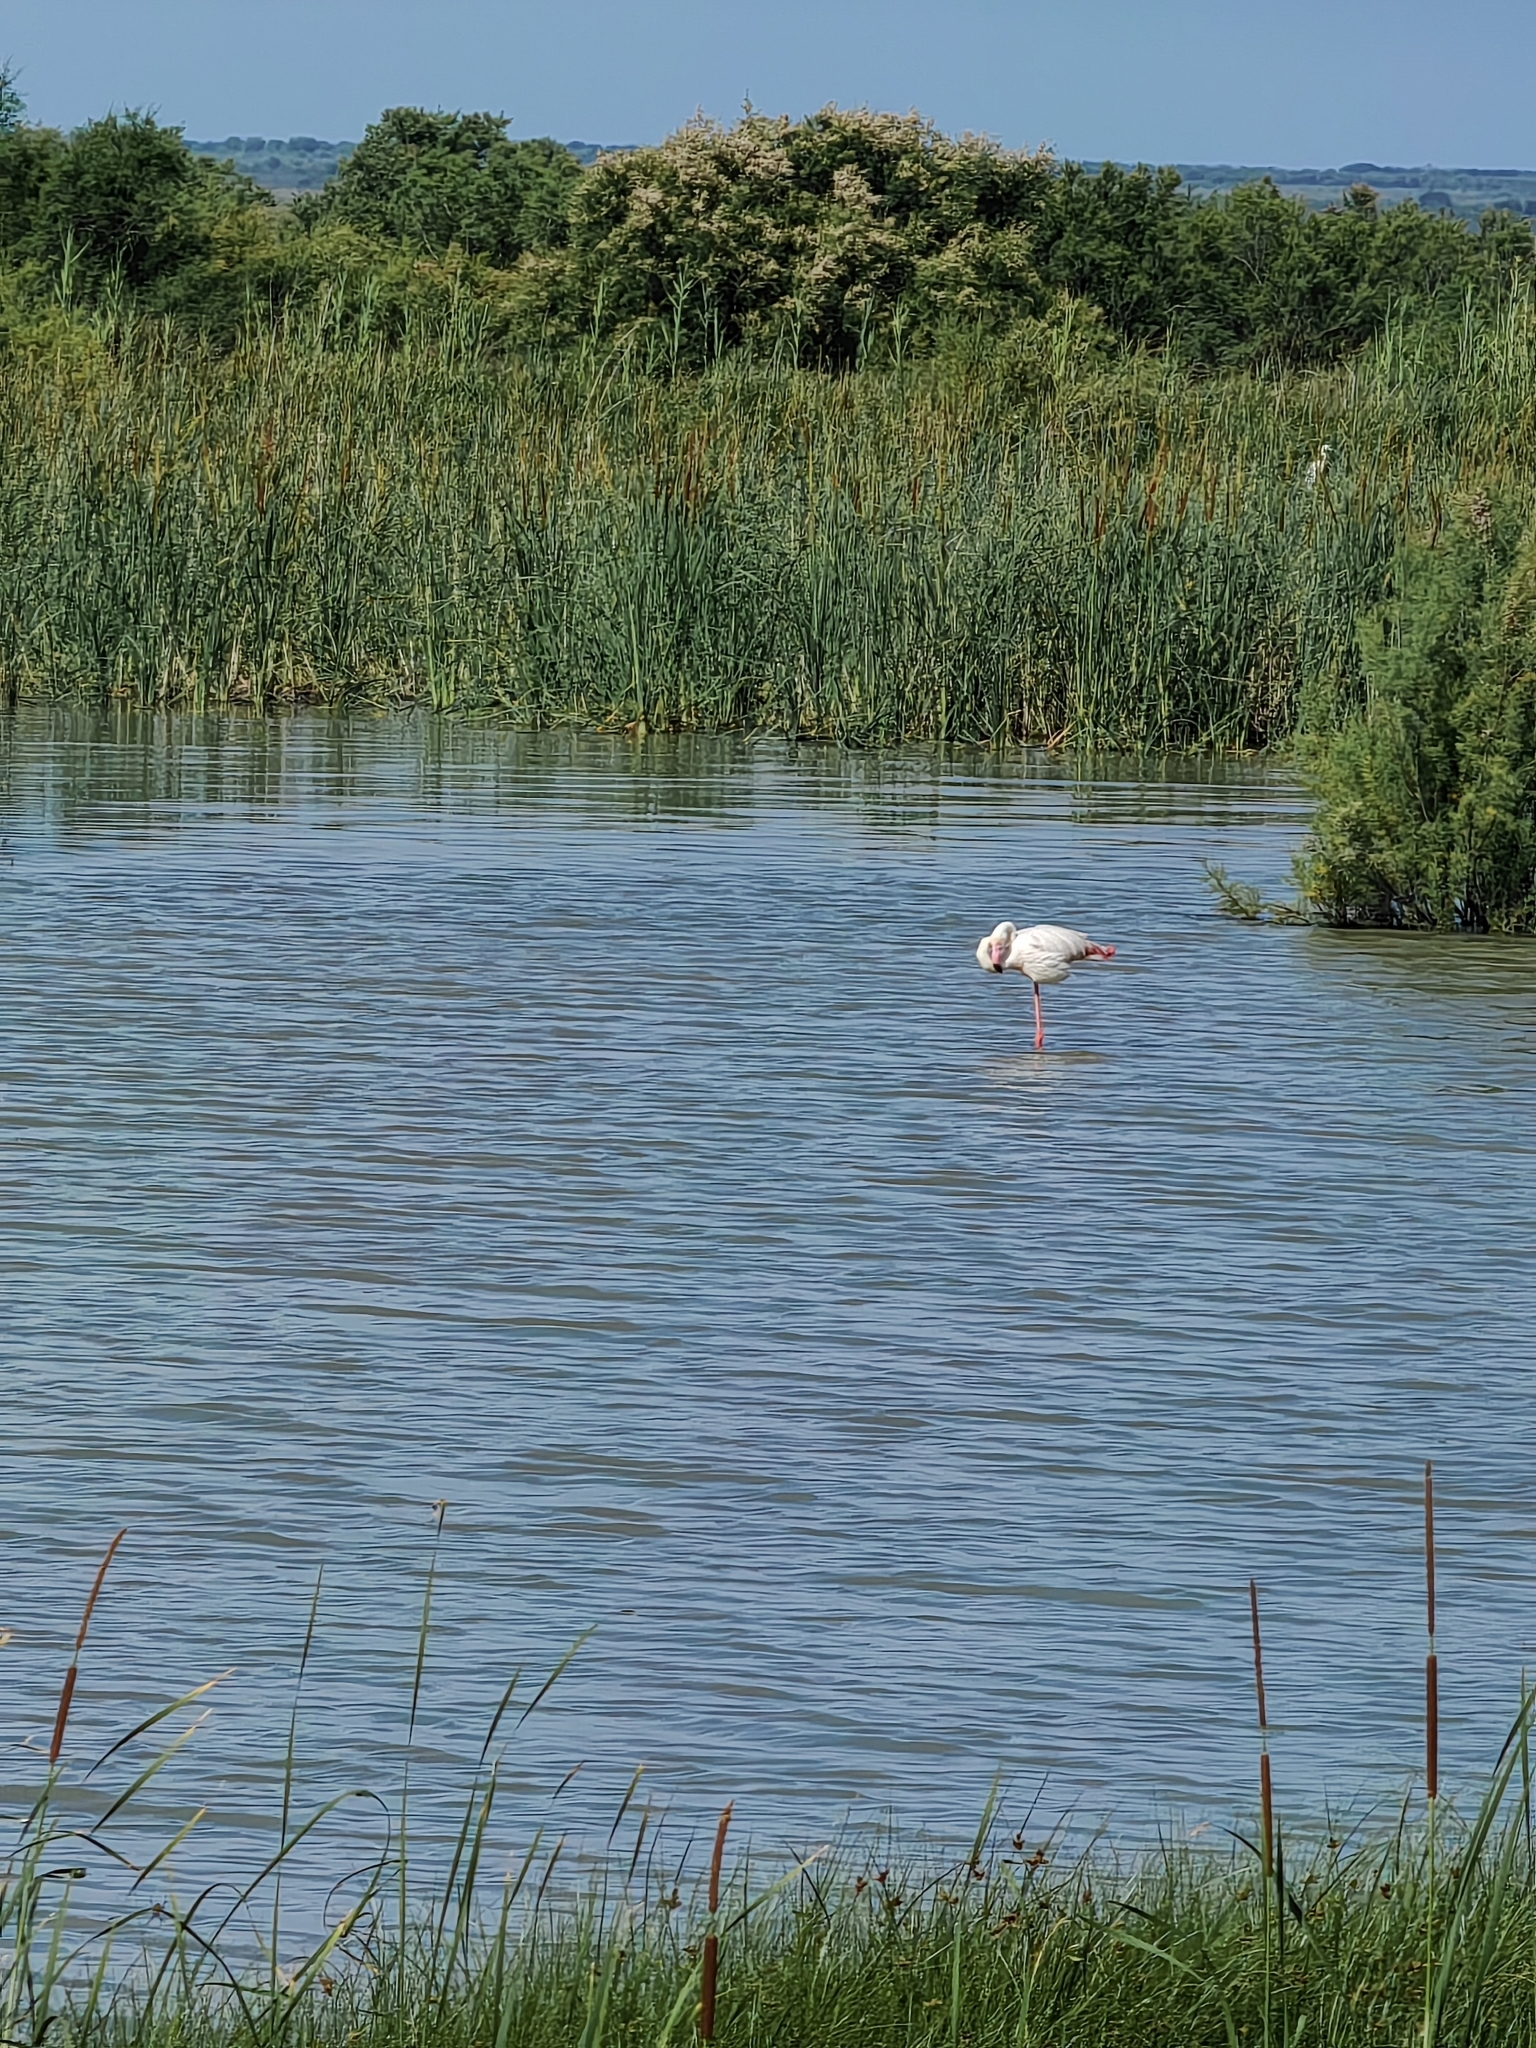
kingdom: Animalia
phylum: Chordata
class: Aves
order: Phoenicopteriformes
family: Phoenicopteridae
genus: Phoenicopterus
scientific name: Phoenicopterus roseus
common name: Greater flamingo
